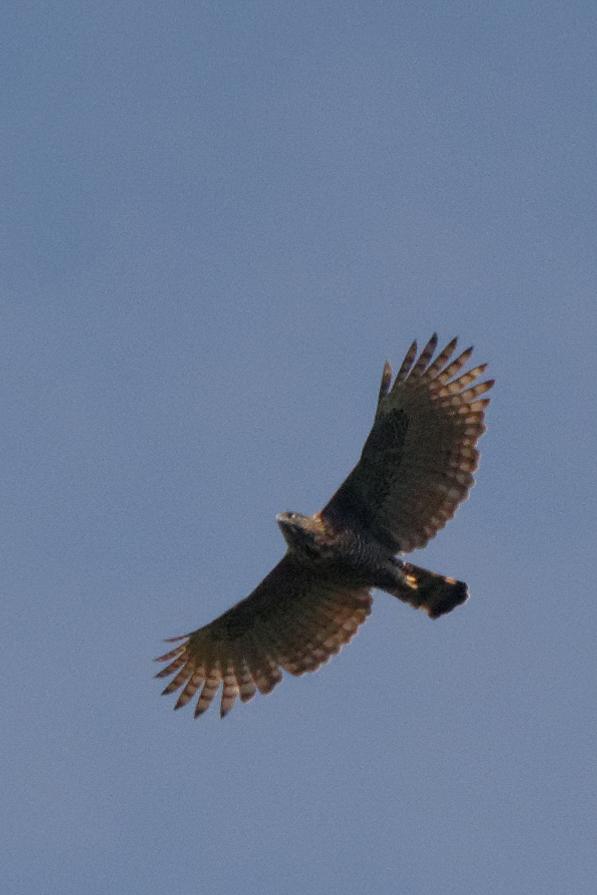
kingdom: Animalia
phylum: Chordata
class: Aves
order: Accipitriformes
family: Accipitridae
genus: Nisaetus
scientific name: Nisaetus lanceolatus
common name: Sulawesi hawk-eagle
